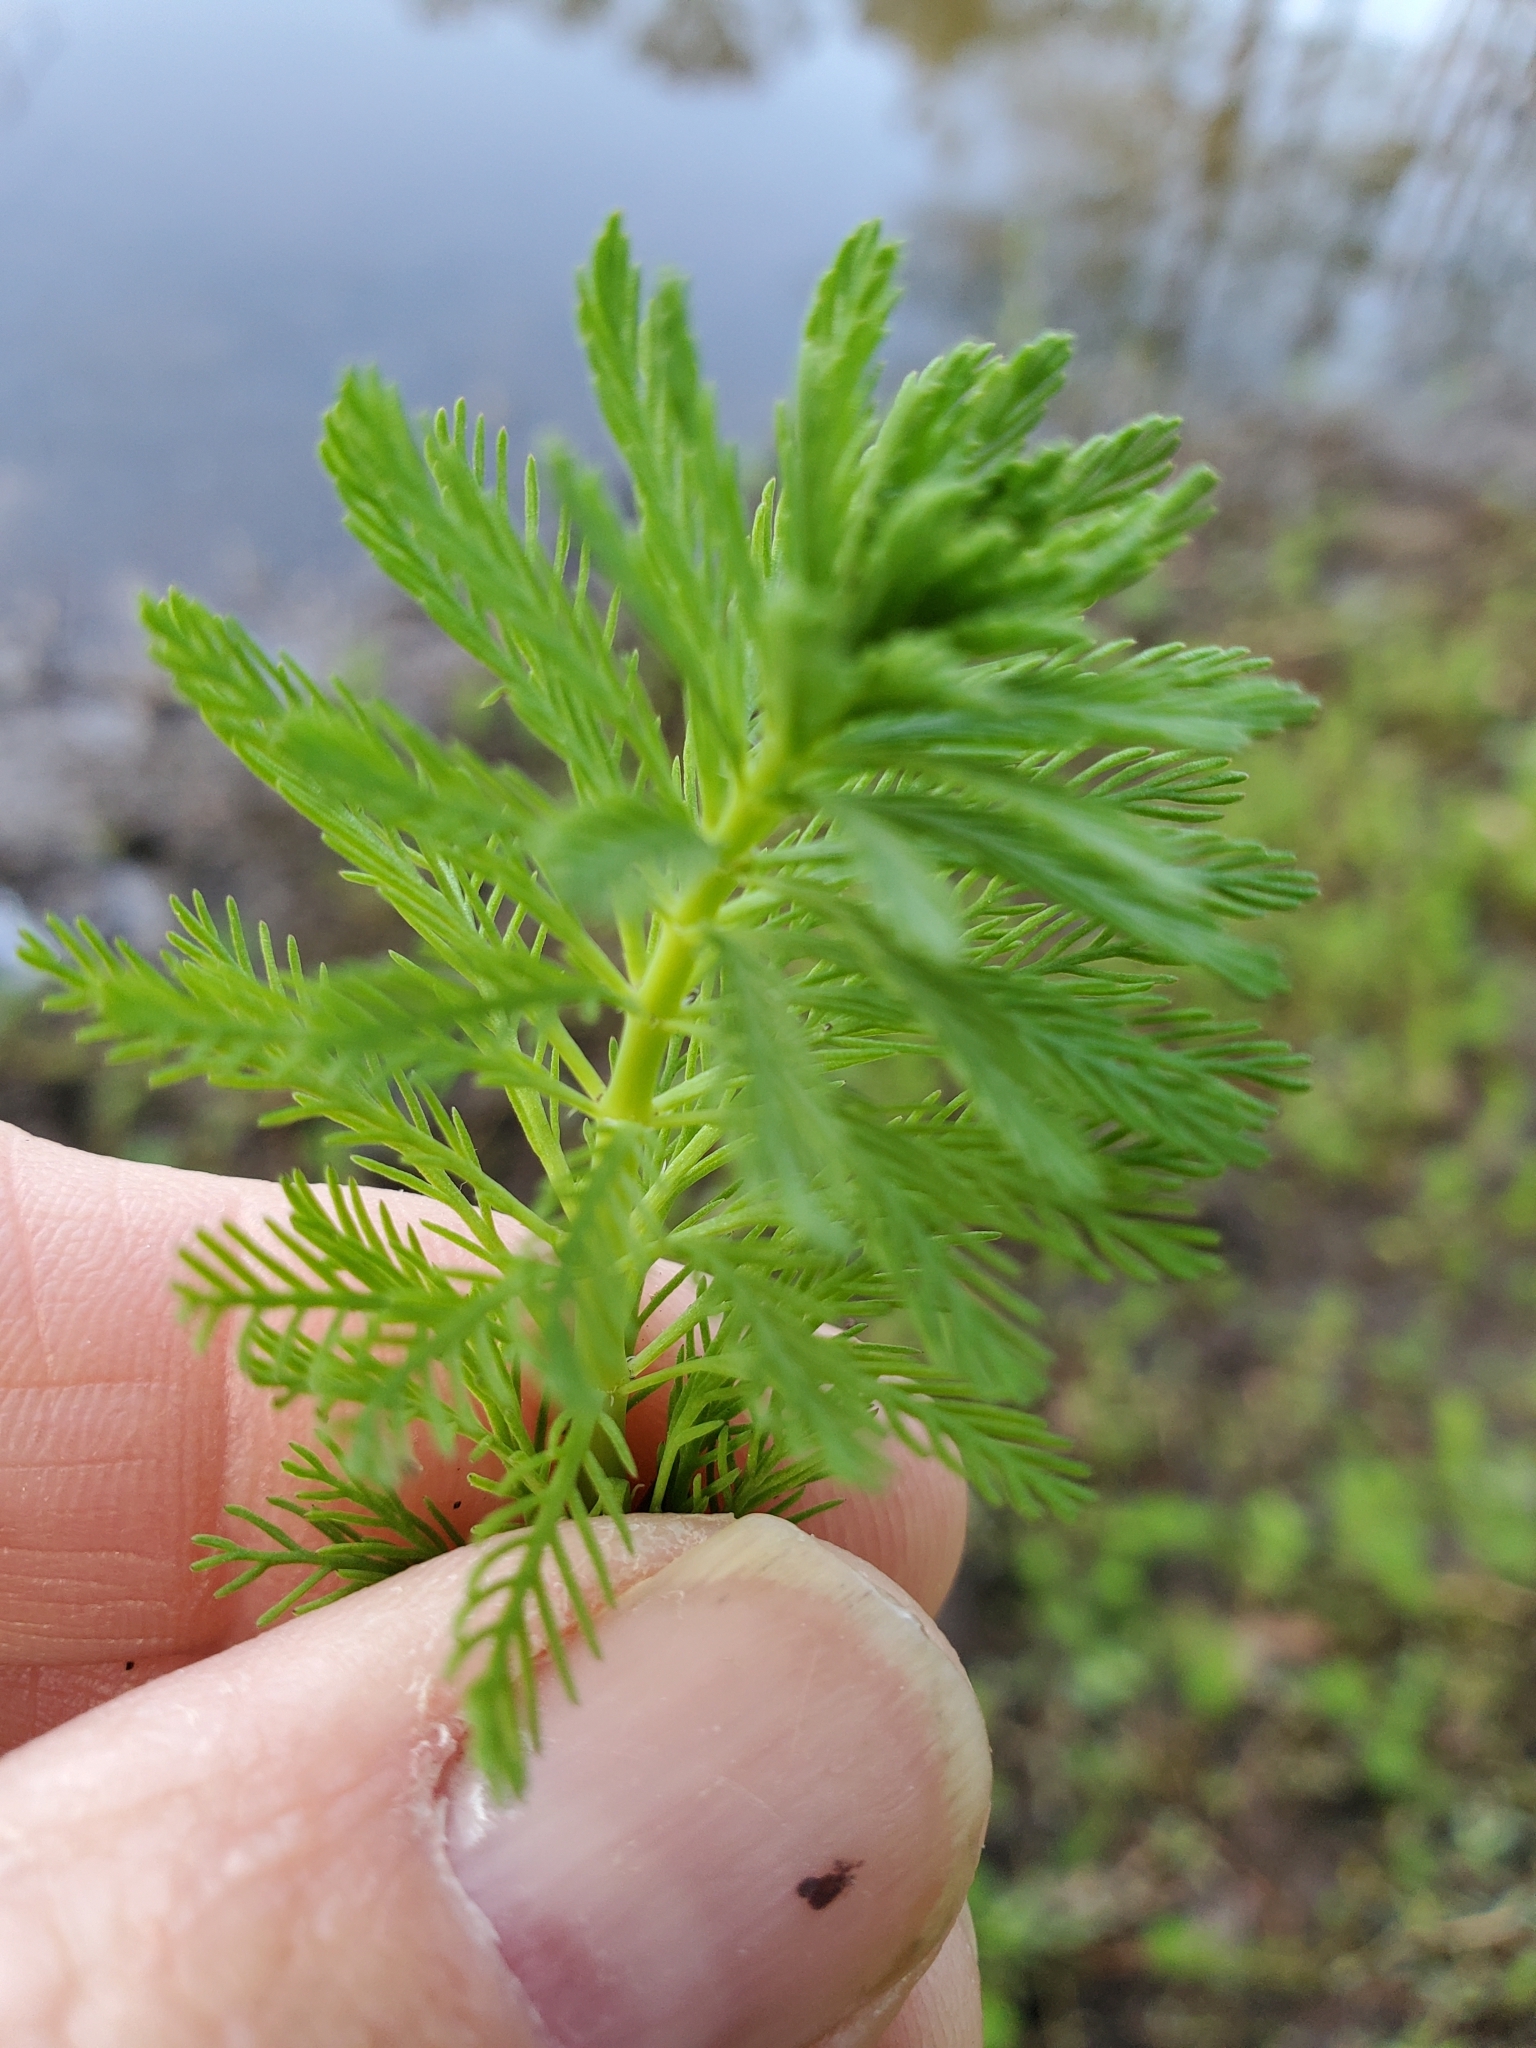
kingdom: Plantae
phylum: Tracheophyta
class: Magnoliopsida
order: Saxifragales
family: Haloragaceae
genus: Myriophyllum
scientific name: Myriophyllum aquaticum
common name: Parrot's feather
